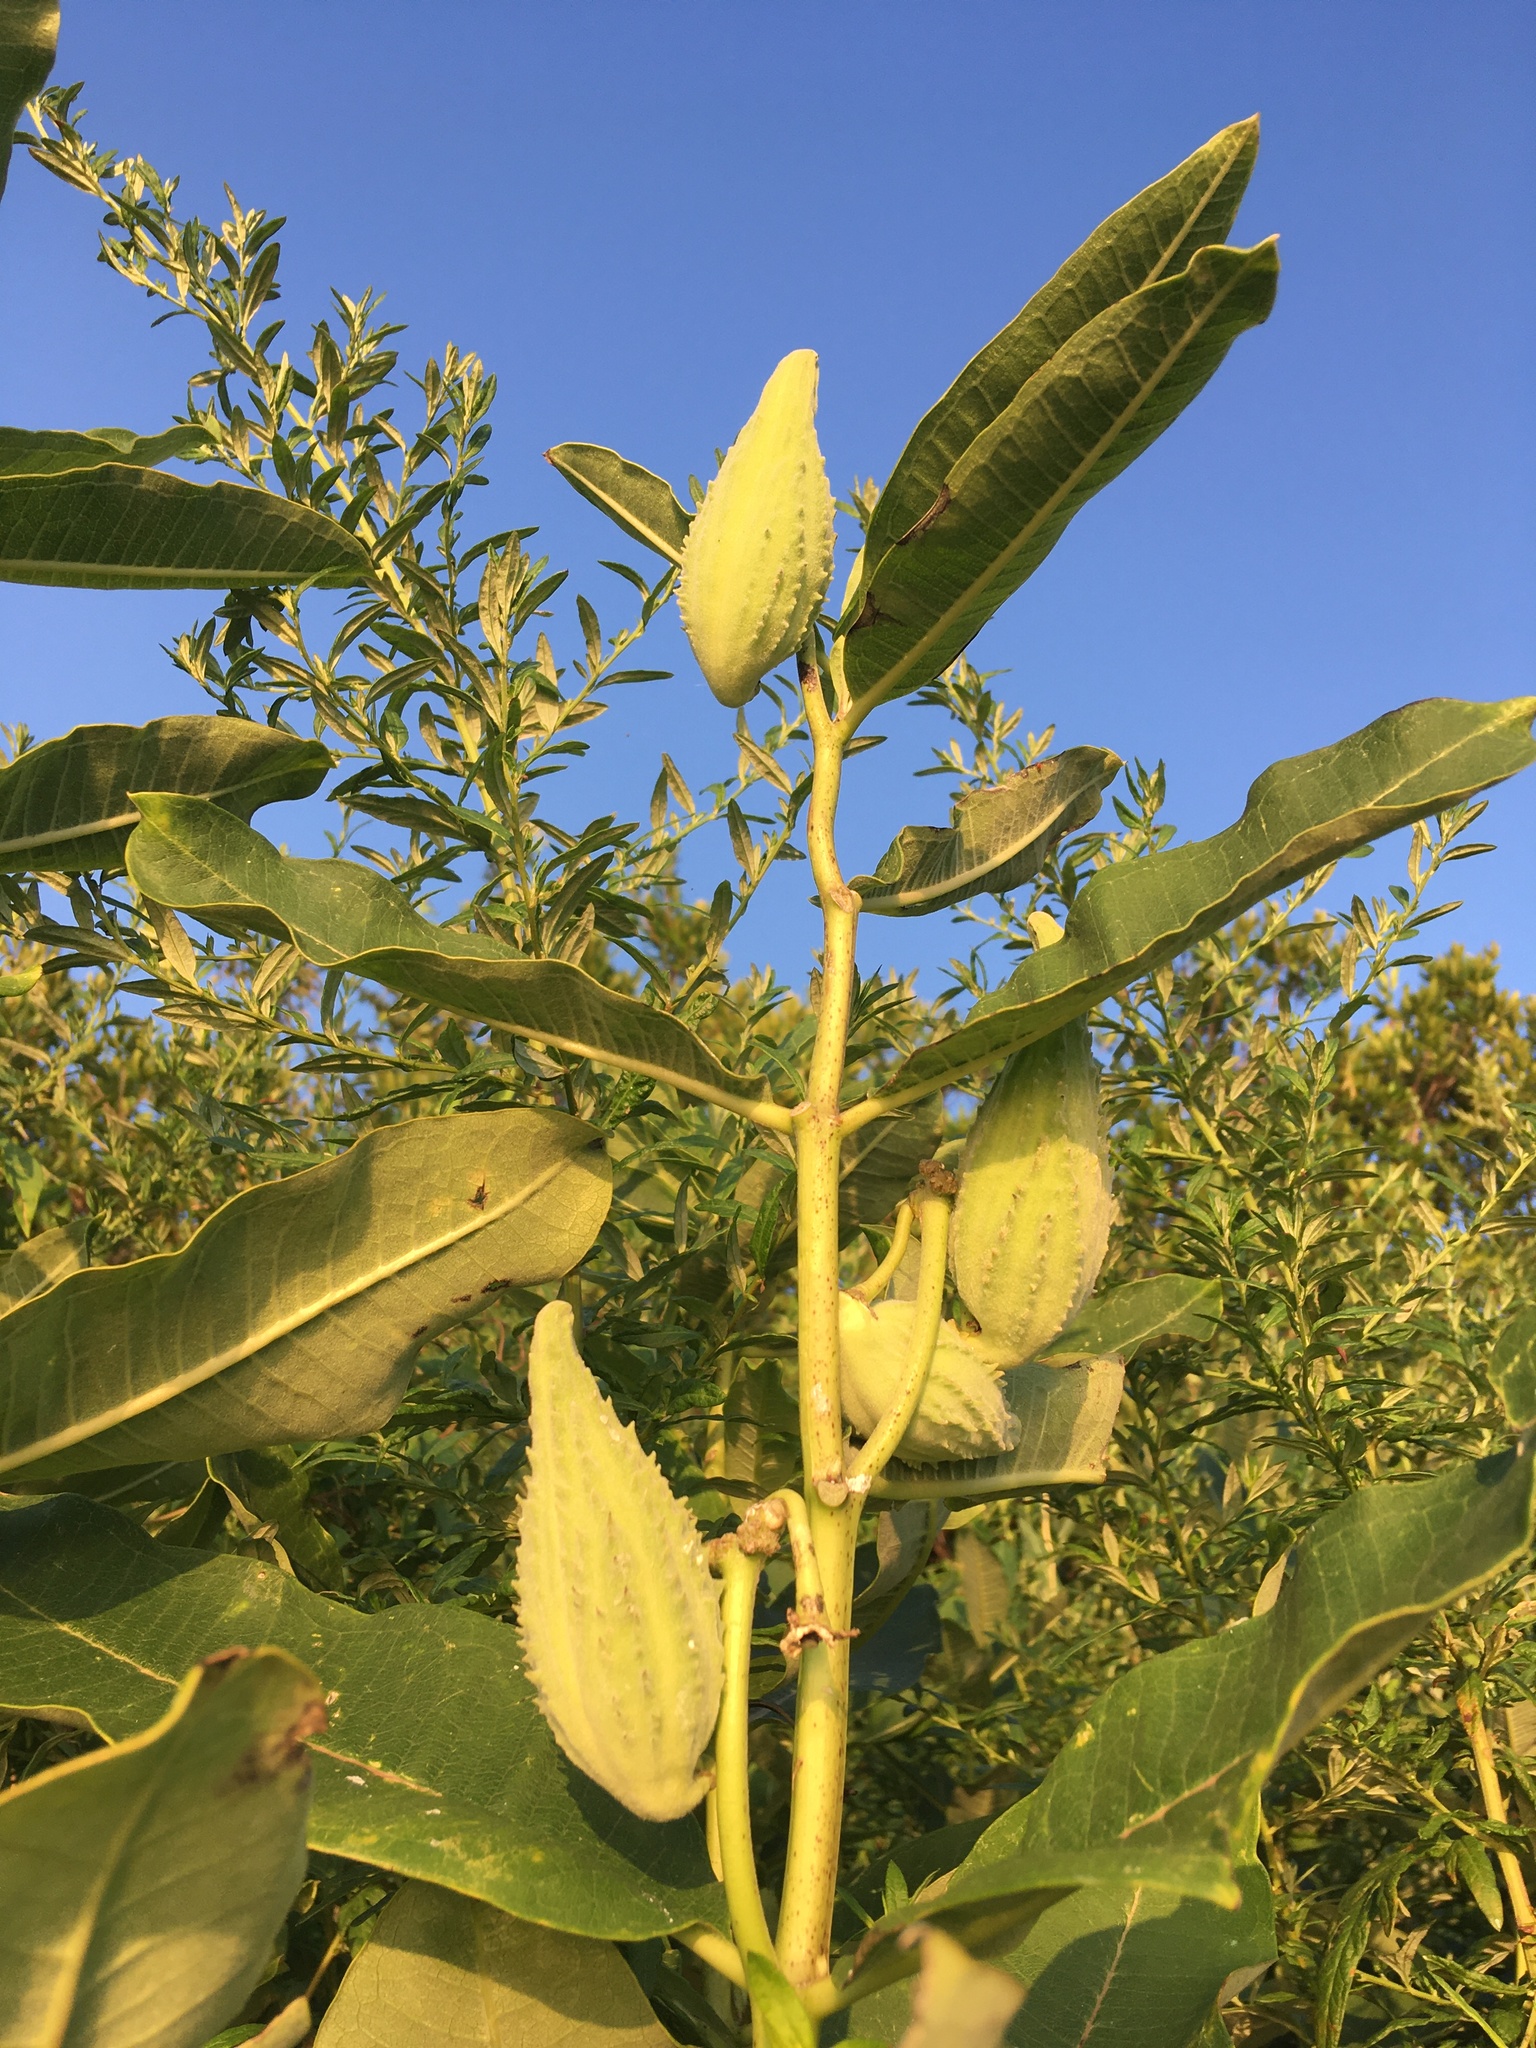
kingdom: Plantae
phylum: Tracheophyta
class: Magnoliopsida
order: Gentianales
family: Apocynaceae
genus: Asclepias
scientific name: Asclepias syriaca
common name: Common milkweed
